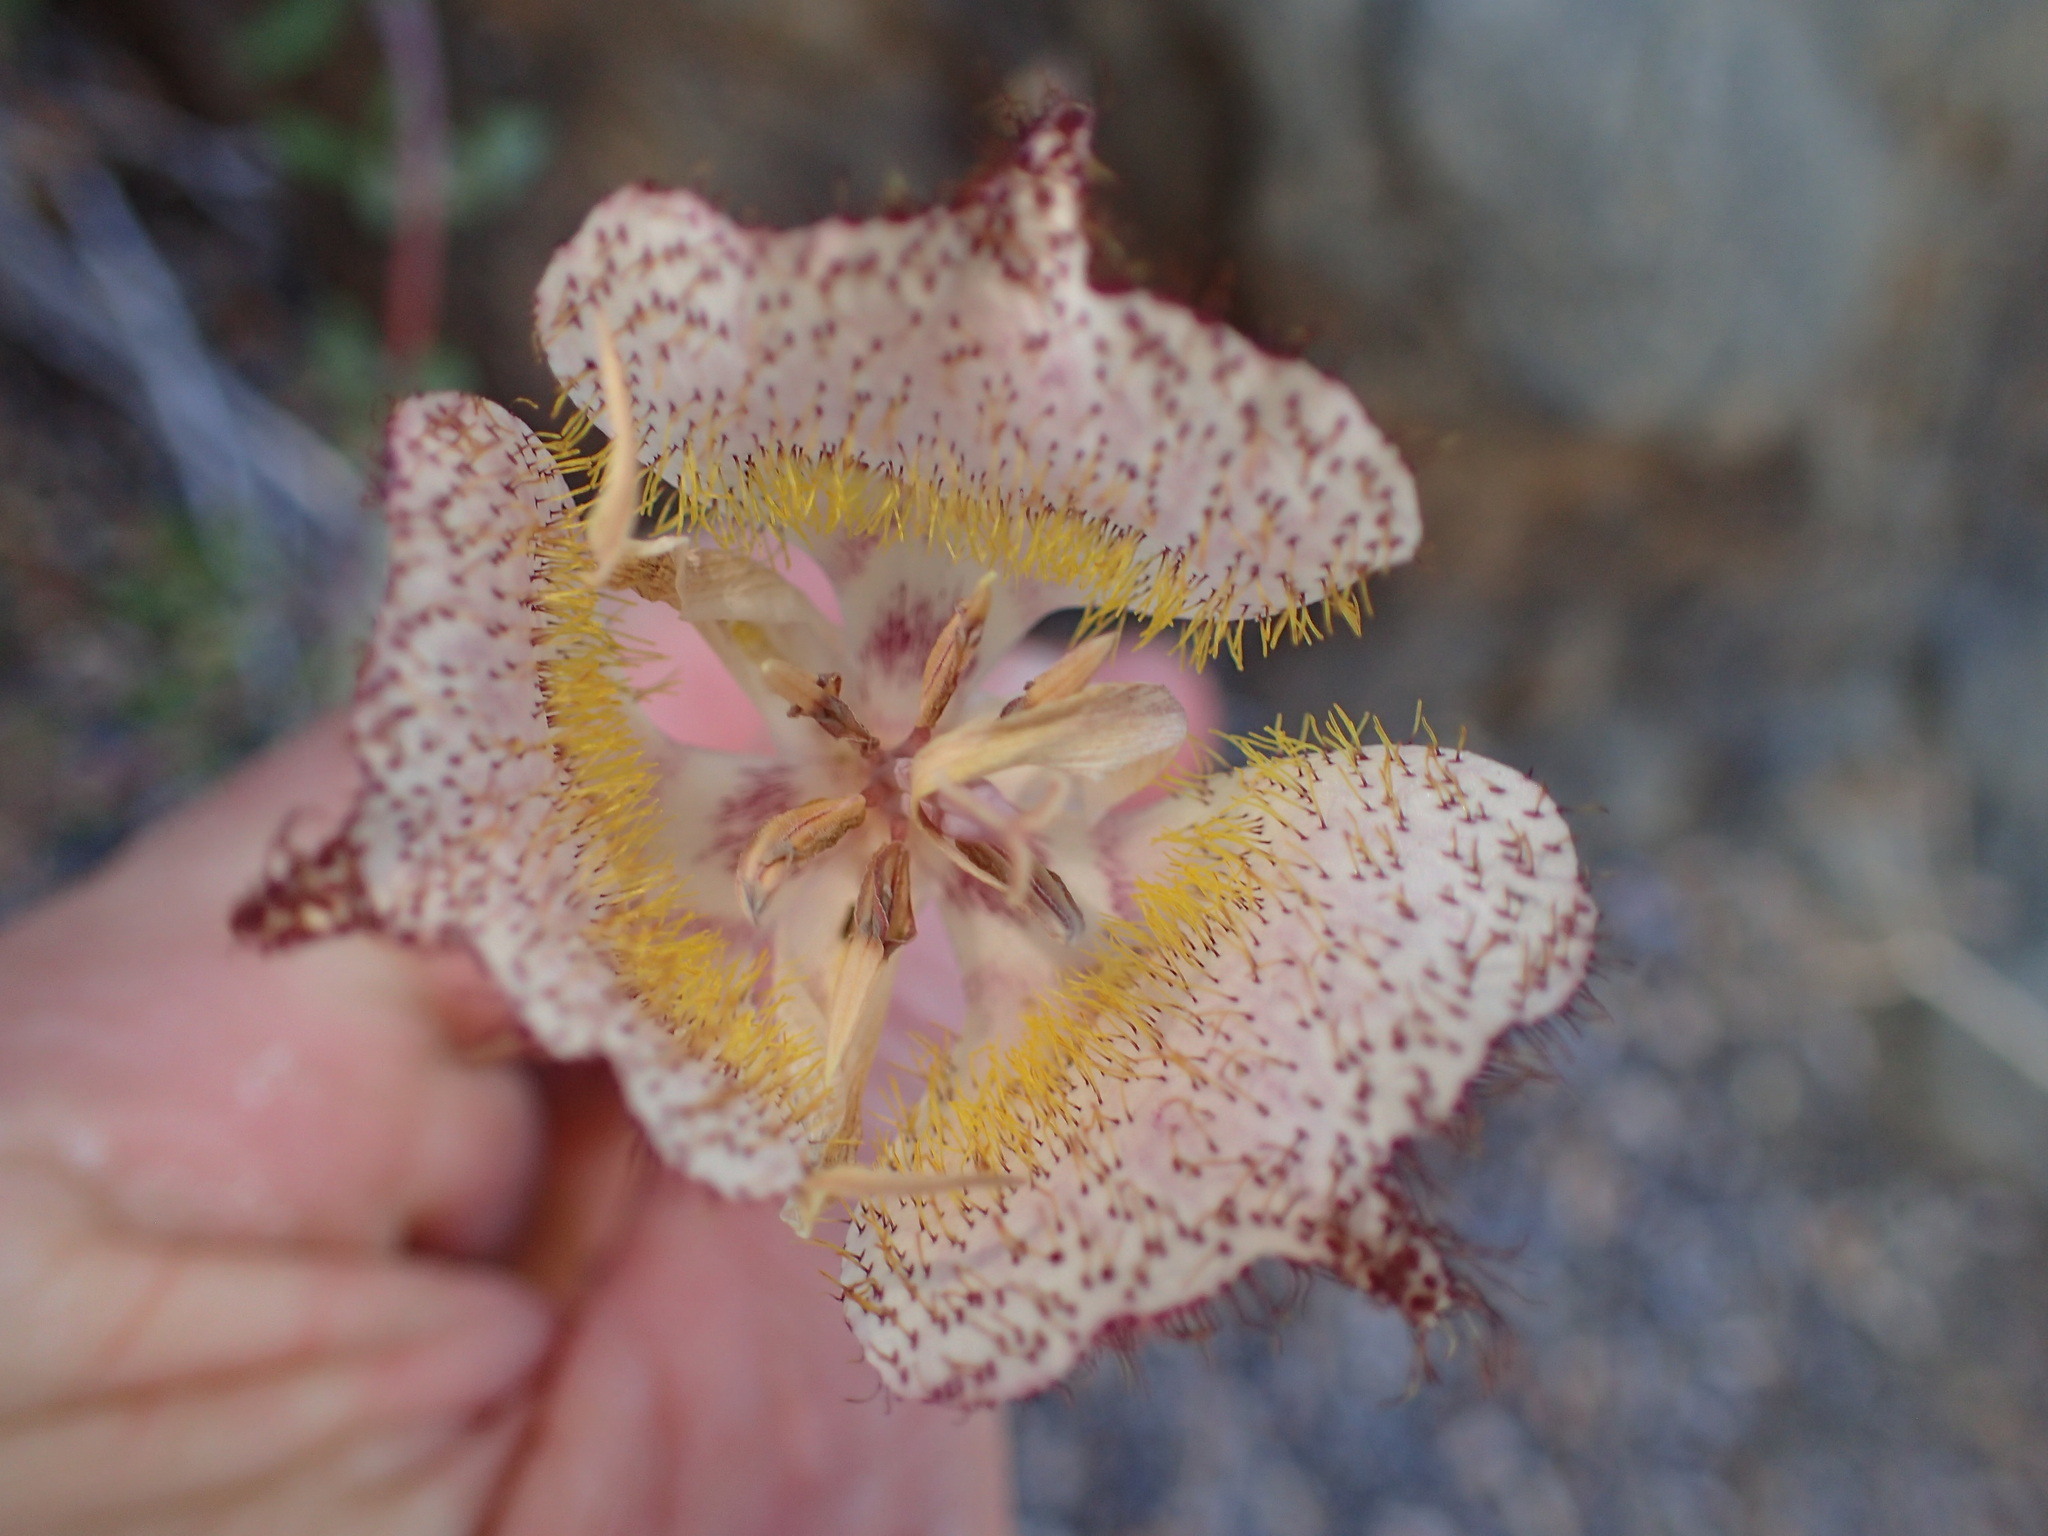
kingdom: Plantae
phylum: Tracheophyta
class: Liliopsida
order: Liliales
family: Liliaceae
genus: Calochortus
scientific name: Calochortus fimbriatus
